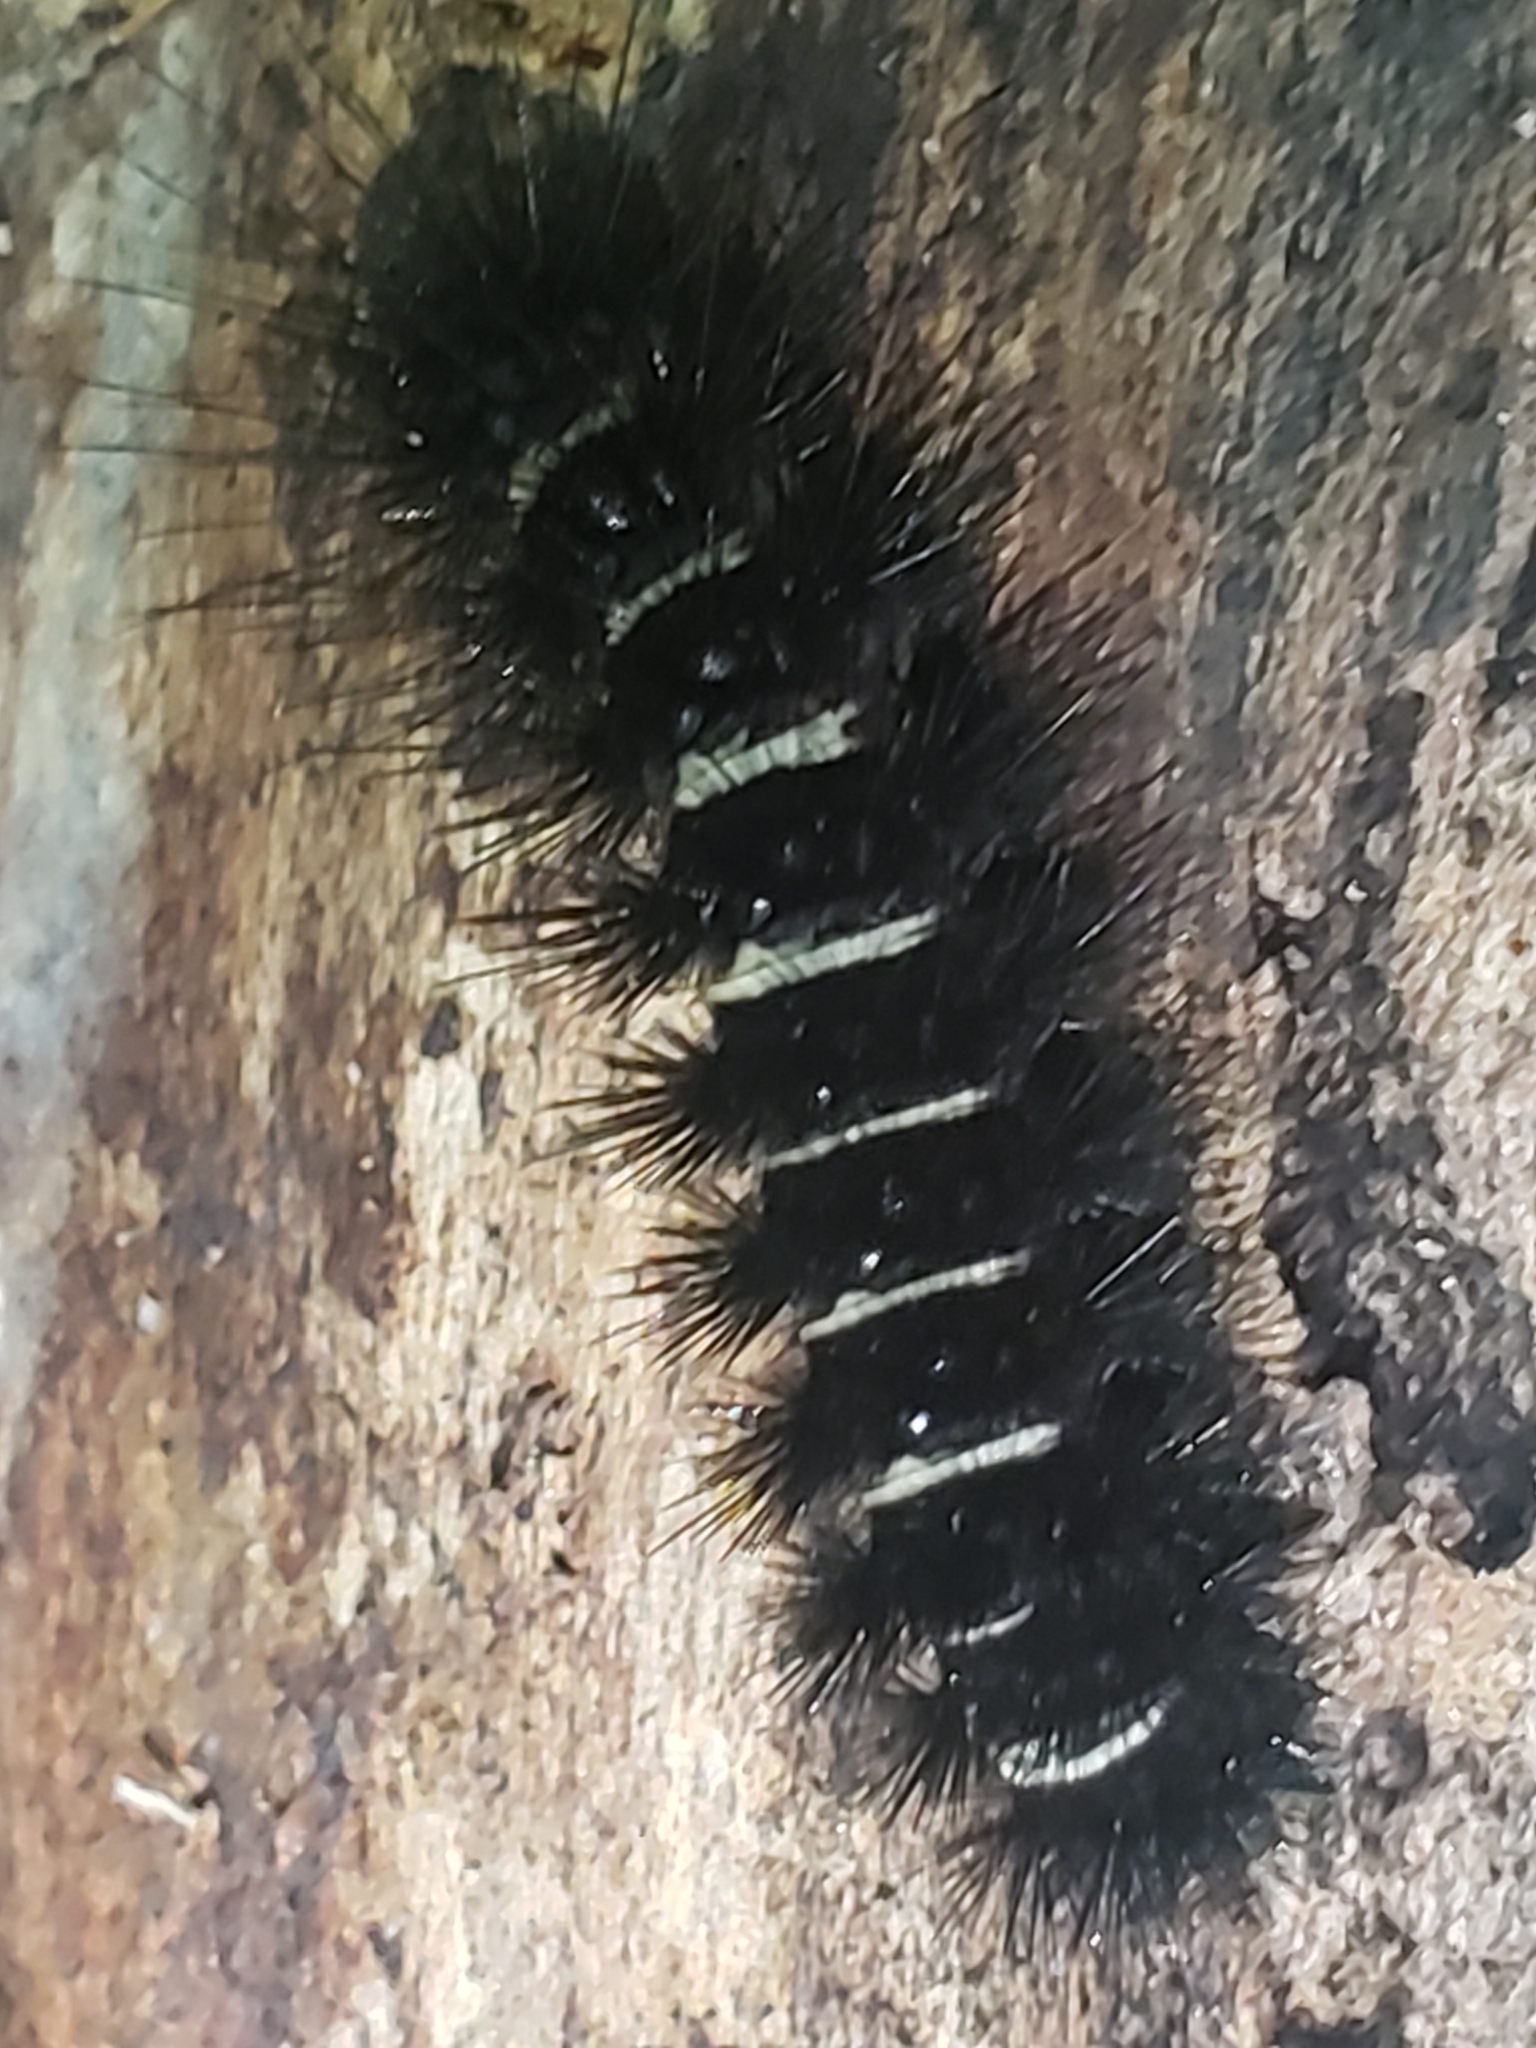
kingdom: Animalia
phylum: Arthropoda
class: Insecta
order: Lepidoptera
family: Erebidae
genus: Spilosoma
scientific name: Spilosoma congrua
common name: Agreeable tiger moth
